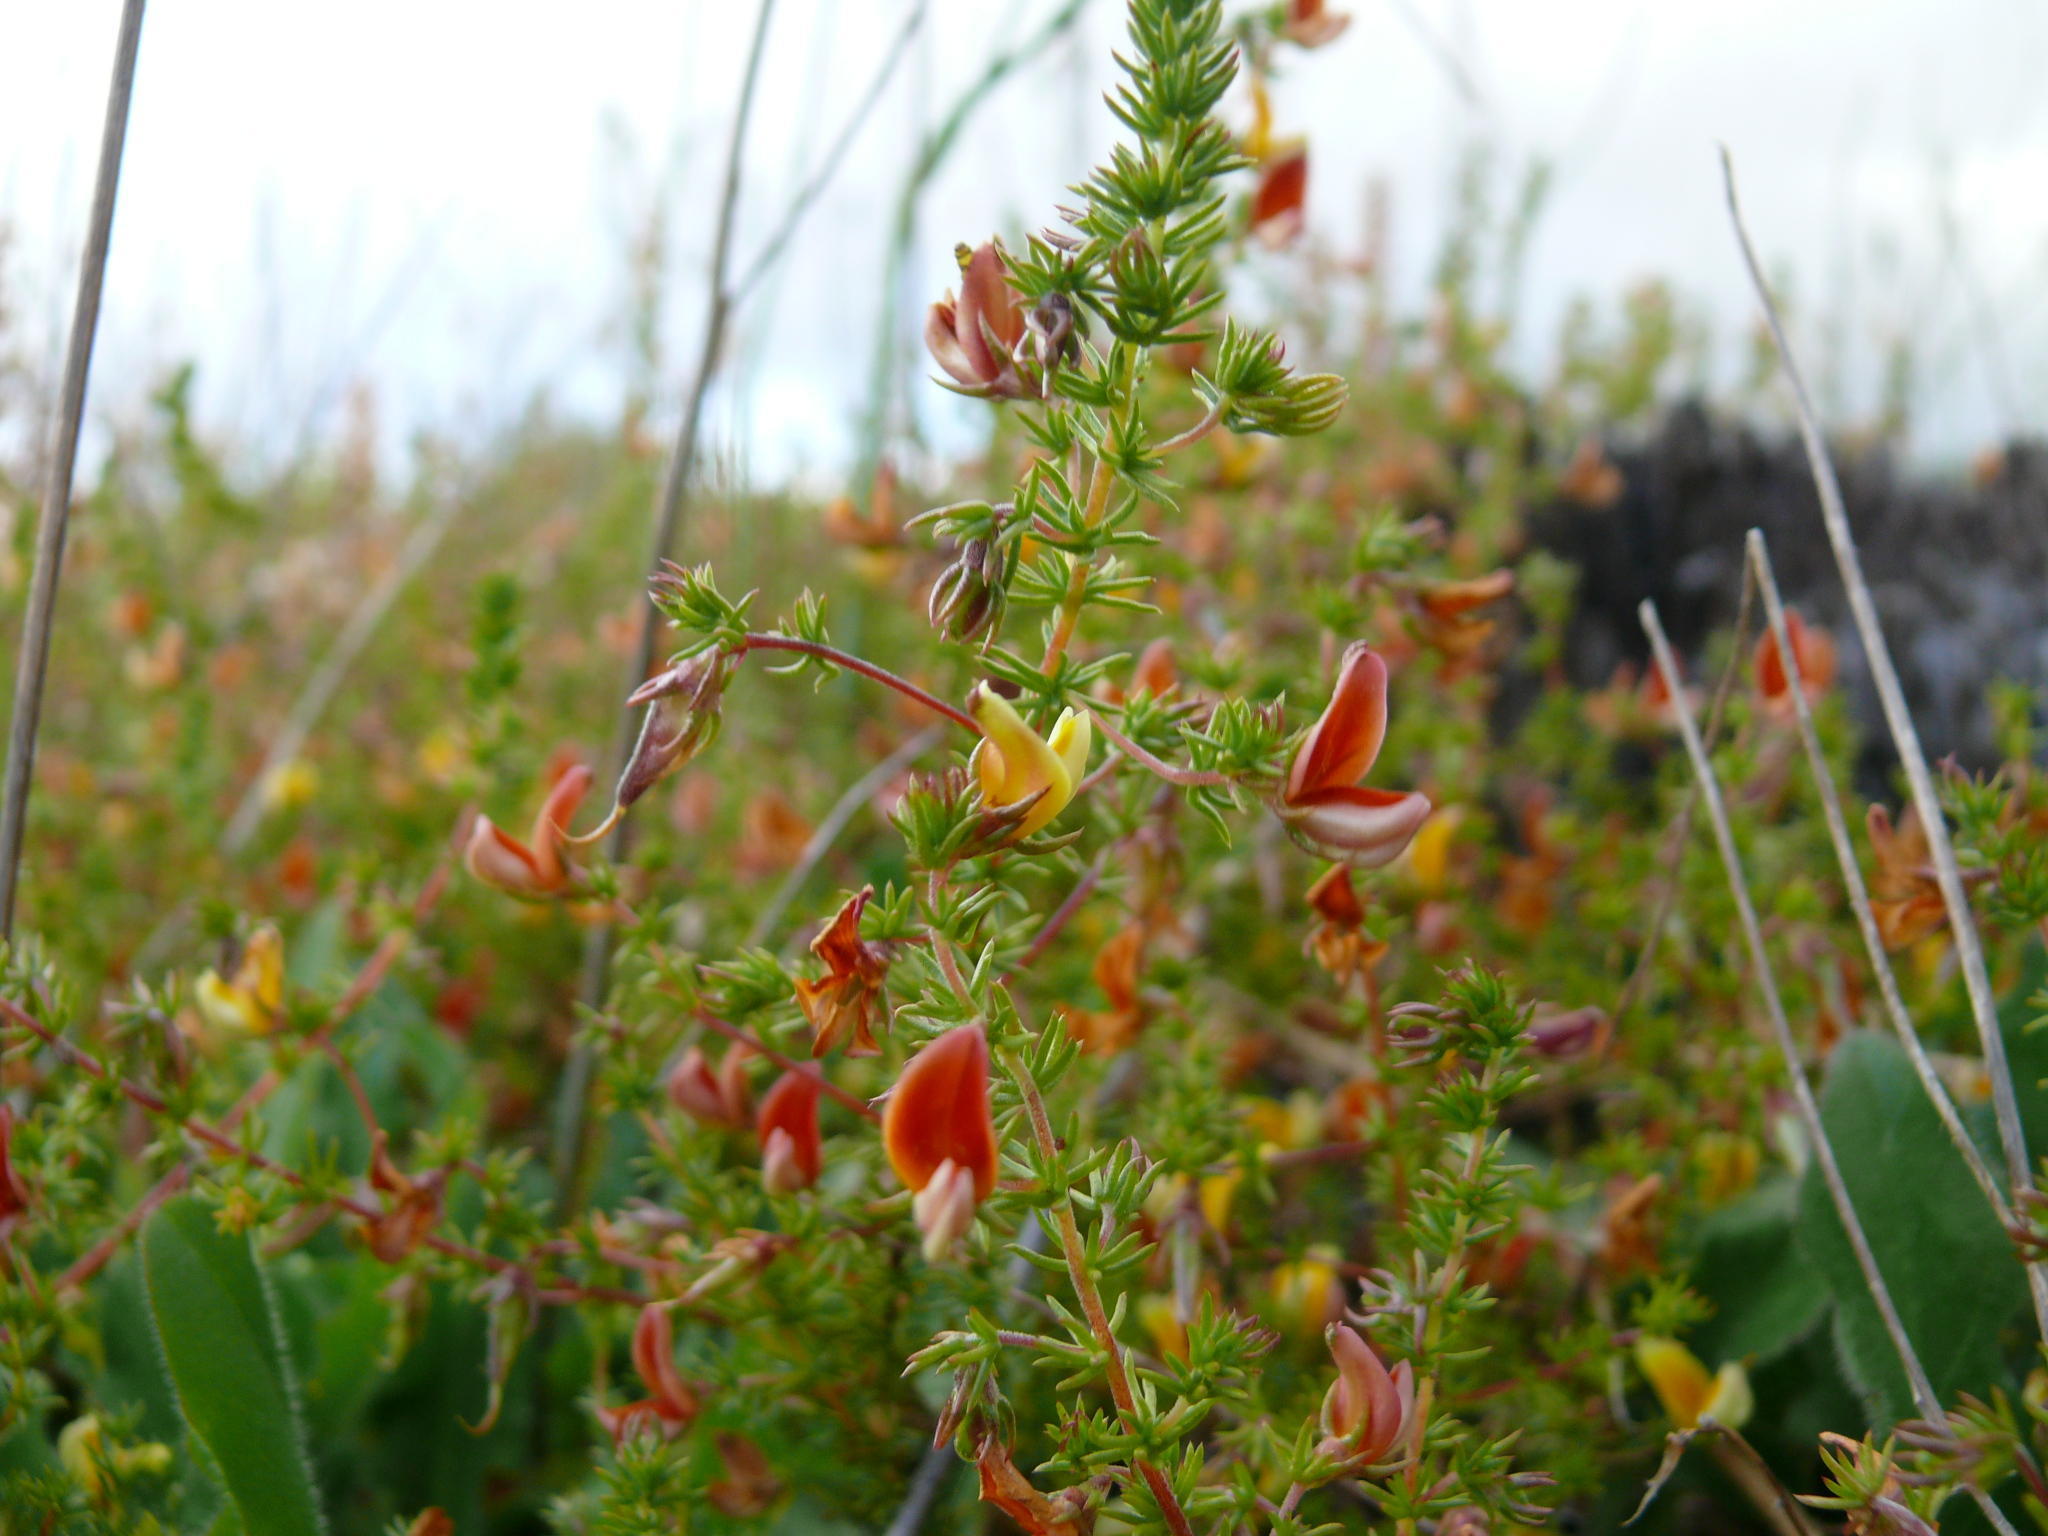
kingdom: Plantae
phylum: Tracheophyta
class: Magnoliopsida
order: Fabales
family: Fabaceae
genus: Aspalathus
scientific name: Aspalathus retroflexa
